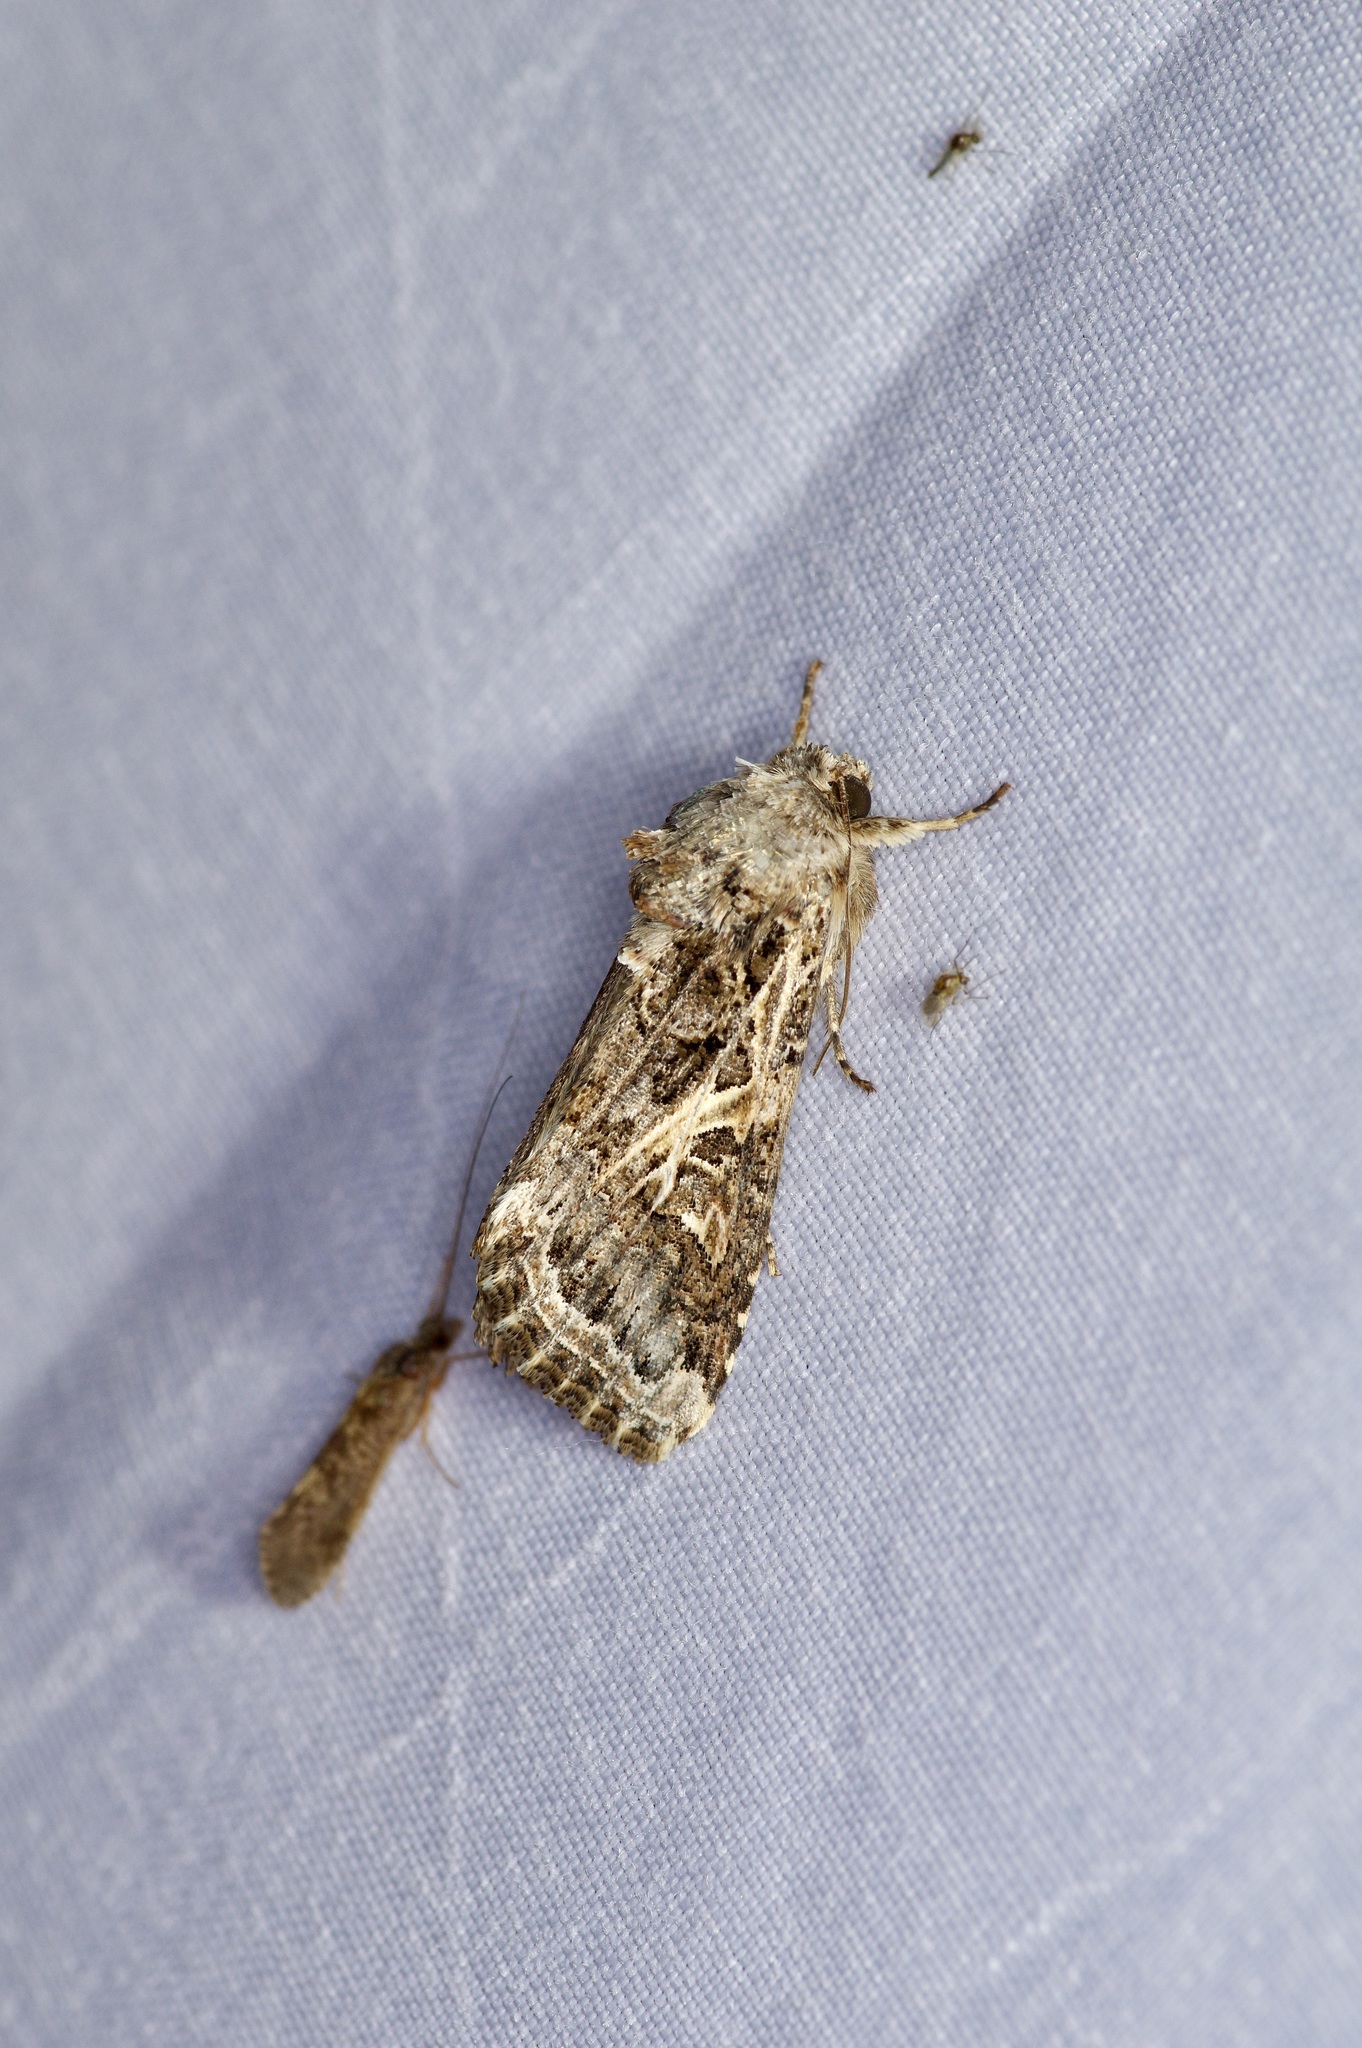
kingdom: Animalia
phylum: Arthropoda
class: Insecta
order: Lepidoptera
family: Noctuidae
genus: Spodoptera
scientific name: Spodoptera ornithogalli
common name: Yellow-striped armyworm
